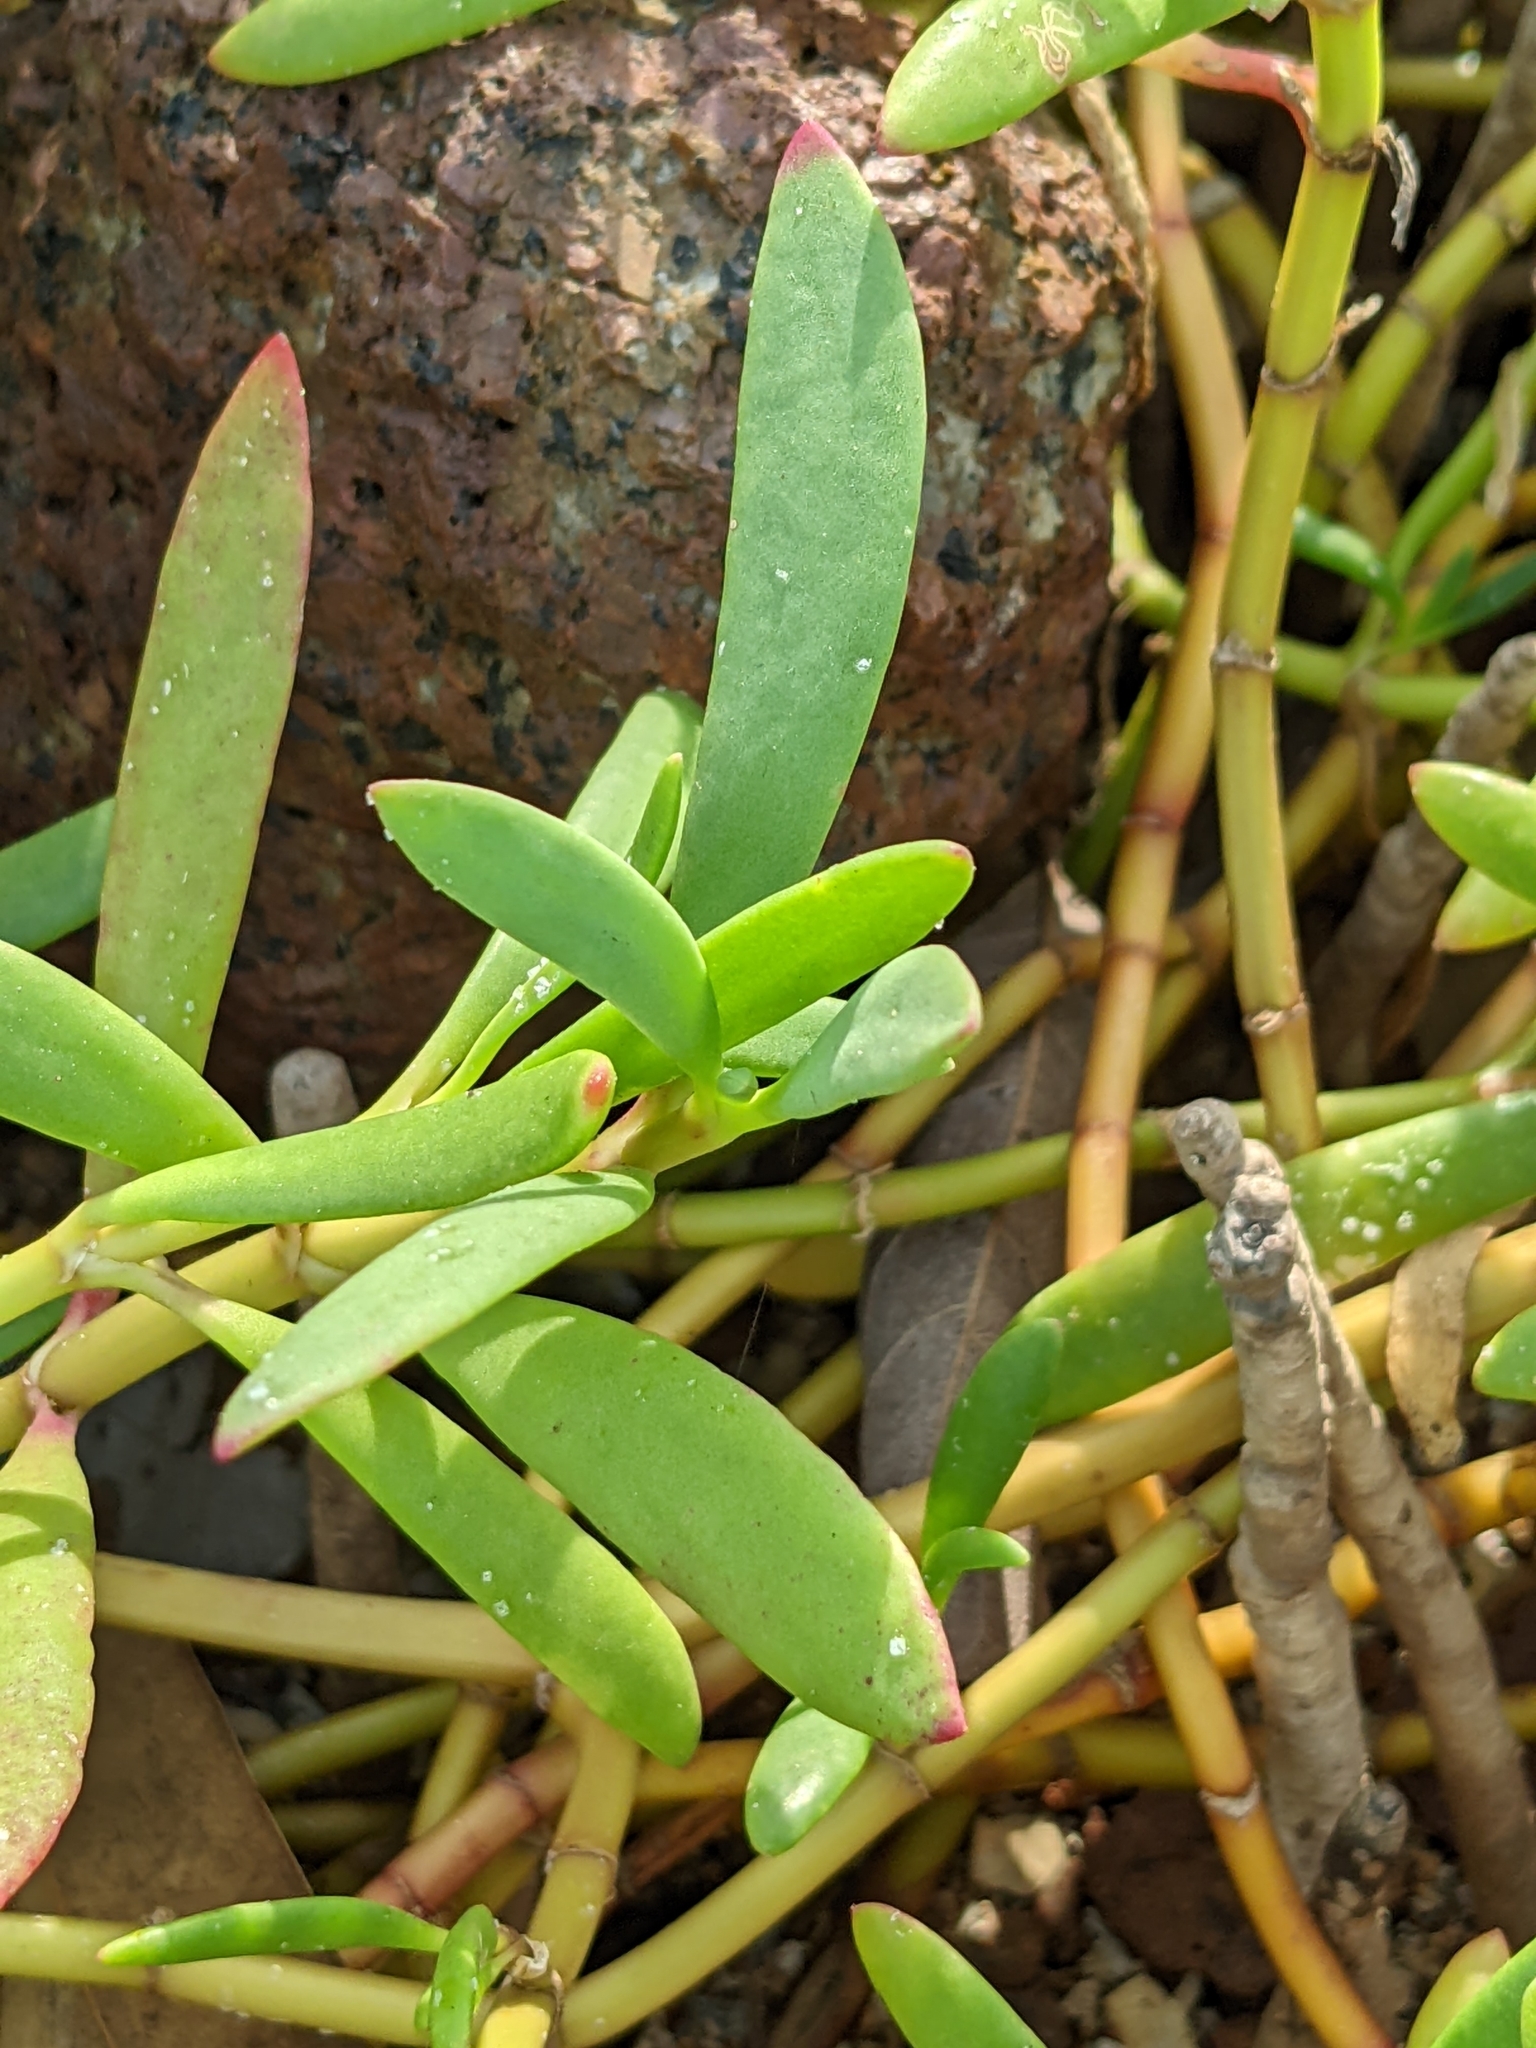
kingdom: Plantae
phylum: Tracheophyta
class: Magnoliopsida
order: Caryophyllales
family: Aizoaceae
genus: Sesuvium
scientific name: Sesuvium portulacastrum
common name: Sea-purslane
